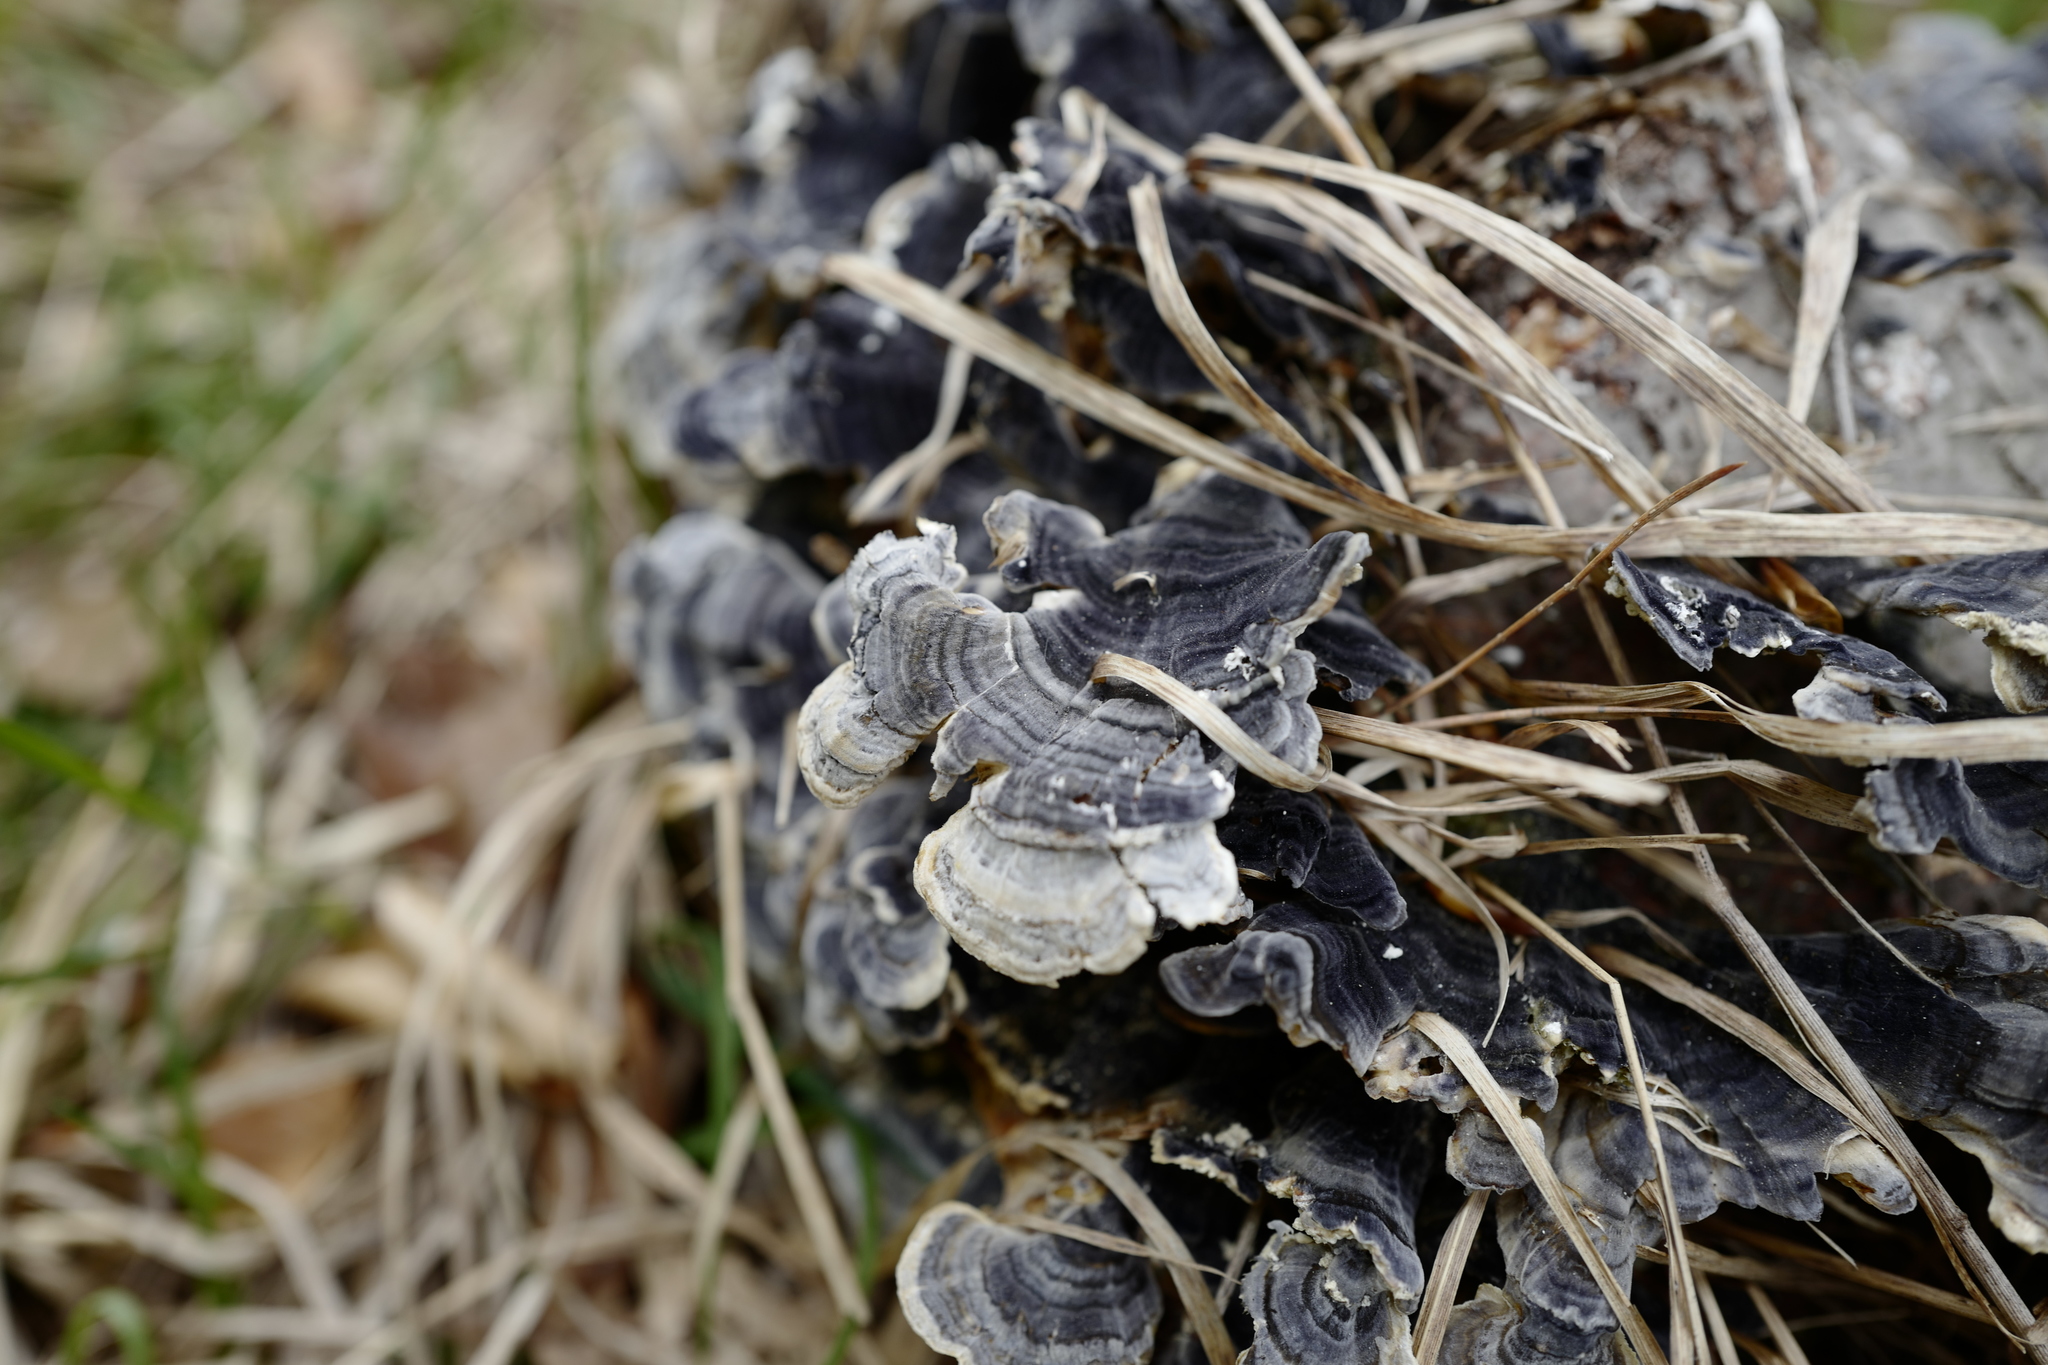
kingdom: Fungi
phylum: Basidiomycota
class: Agaricomycetes
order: Polyporales
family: Polyporaceae
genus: Trametes
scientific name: Trametes versicolor
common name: Turkeytail
